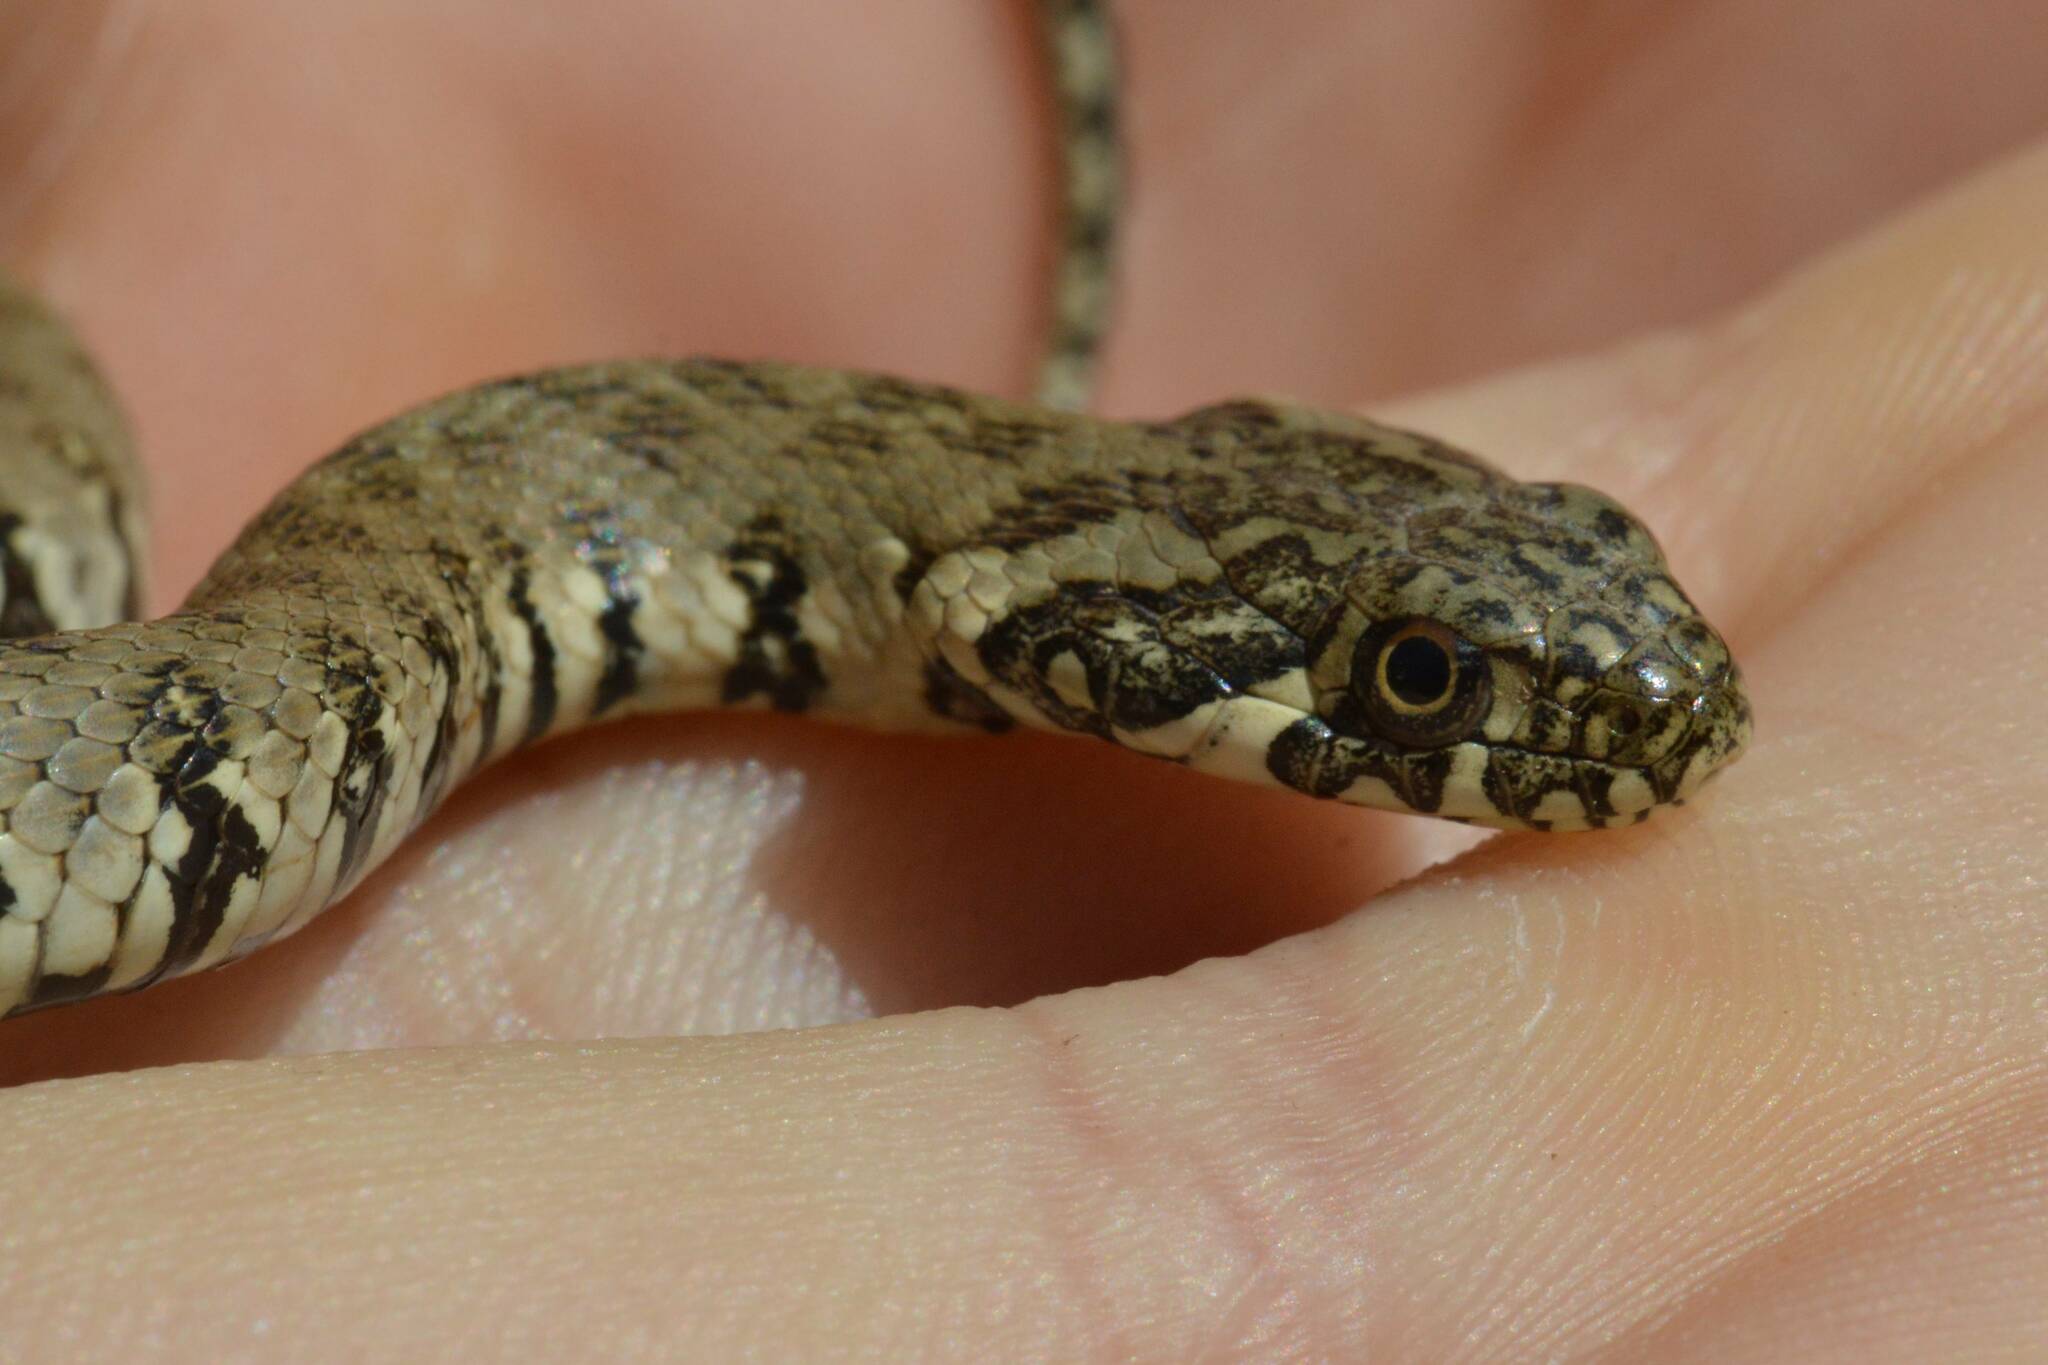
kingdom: Animalia
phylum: Chordata
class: Squamata
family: Colubridae
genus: Natrix
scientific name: Natrix maura
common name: Viperine water snake
